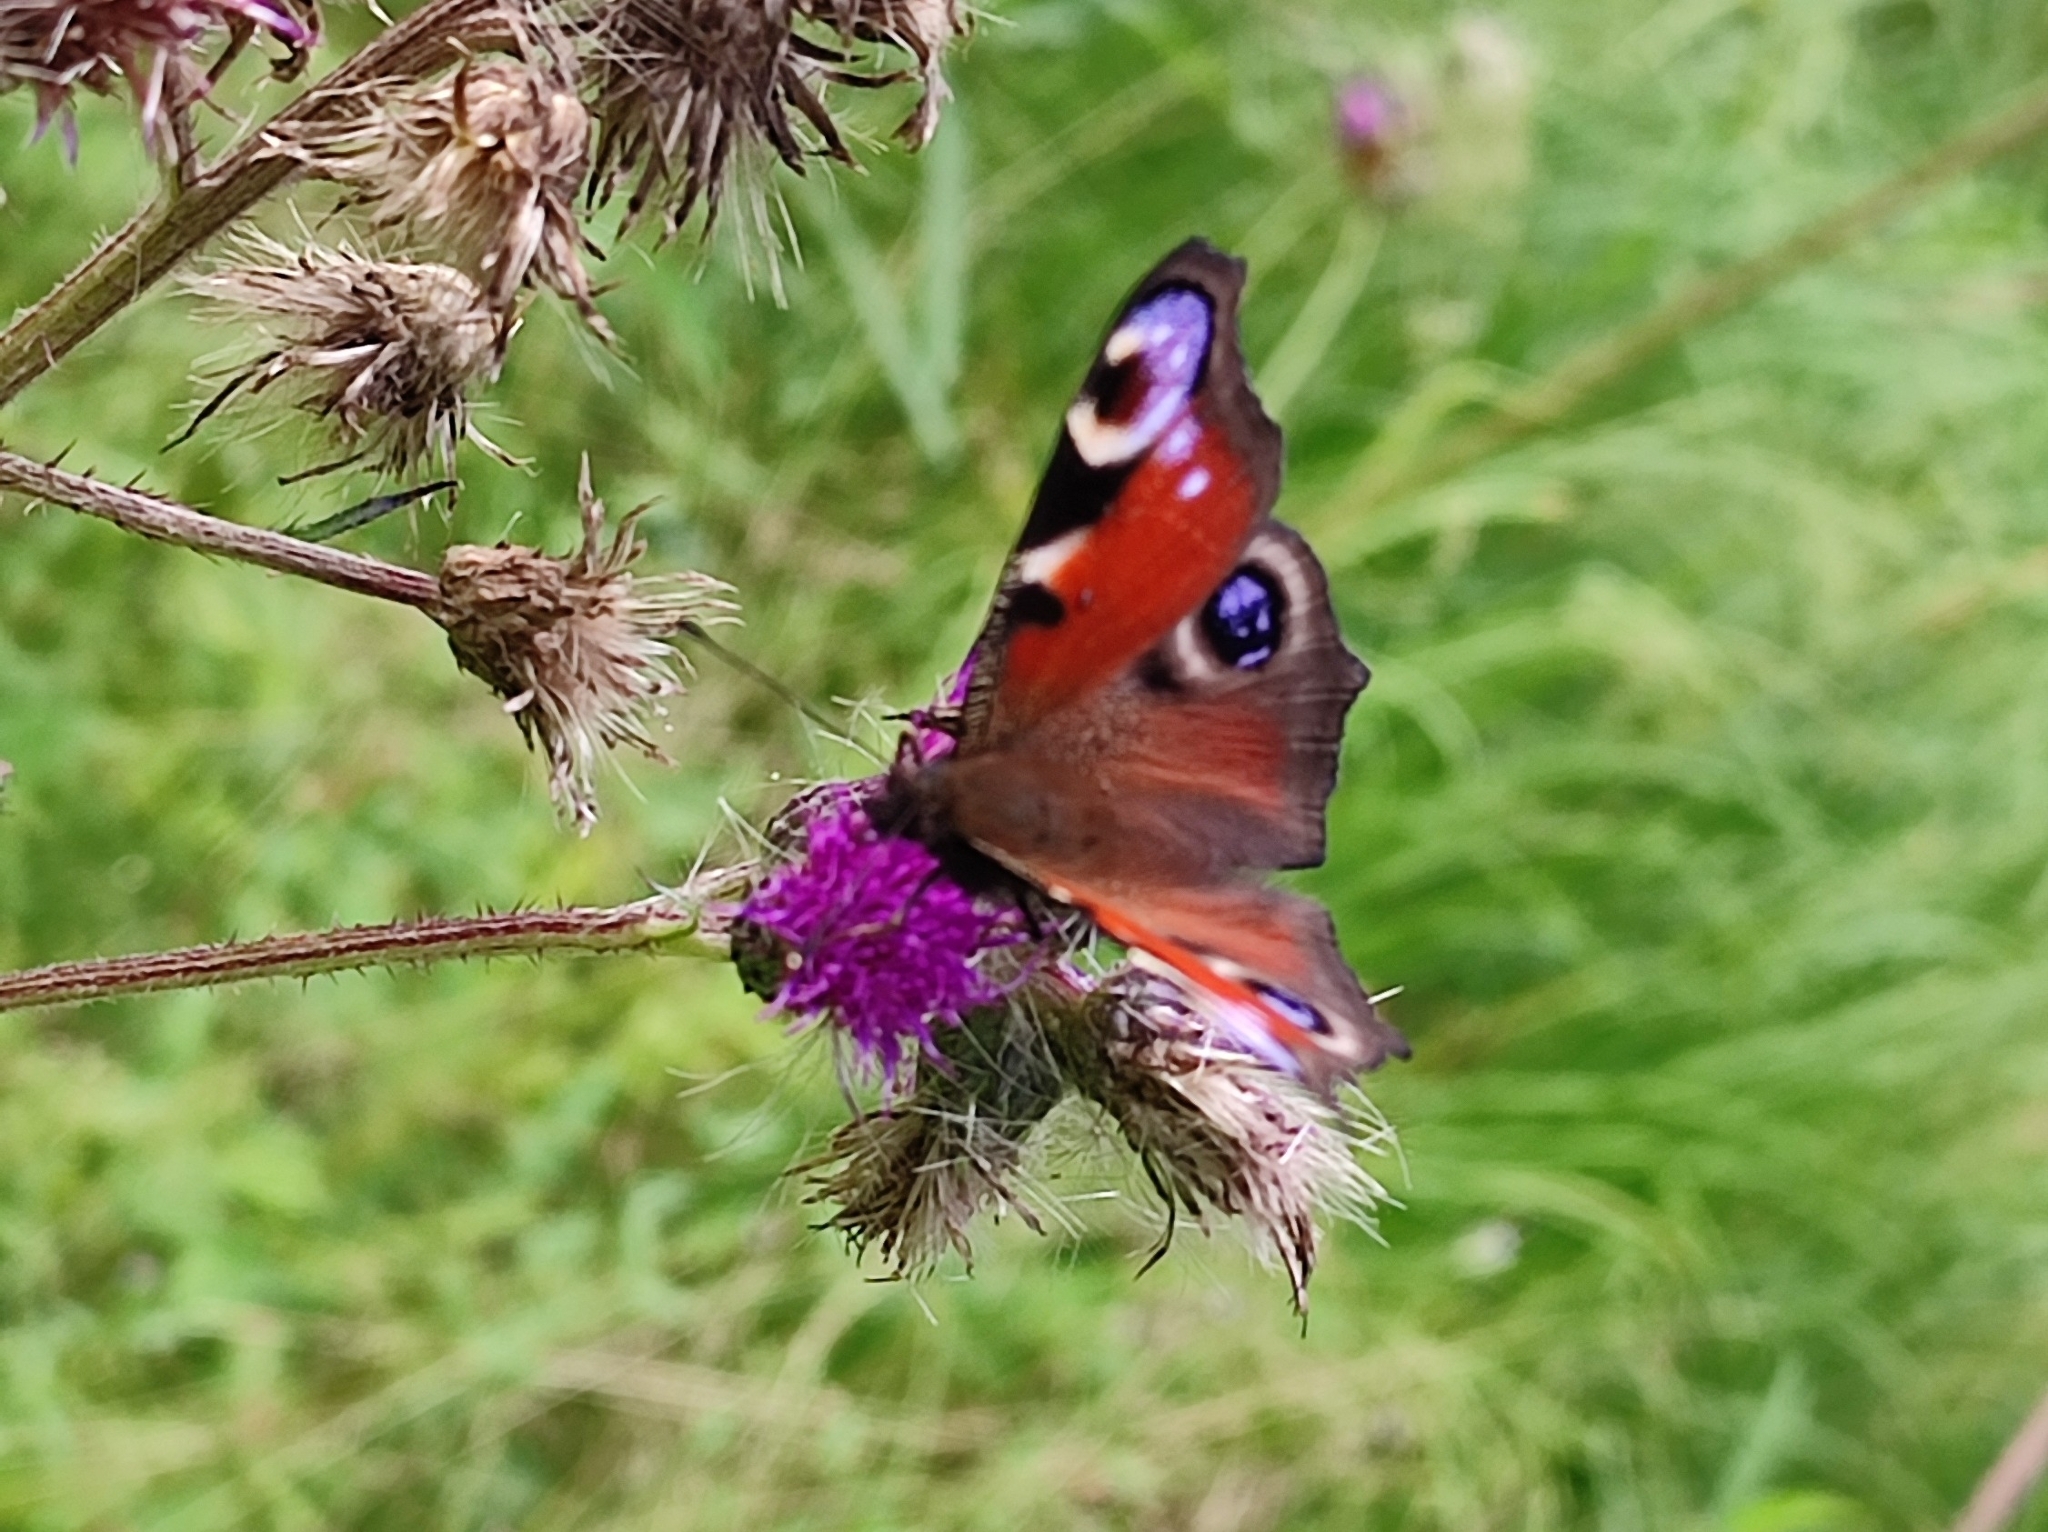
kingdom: Animalia
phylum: Arthropoda
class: Insecta
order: Lepidoptera
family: Nymphalidae
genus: Aglais
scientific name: Aglais io
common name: Peacock
